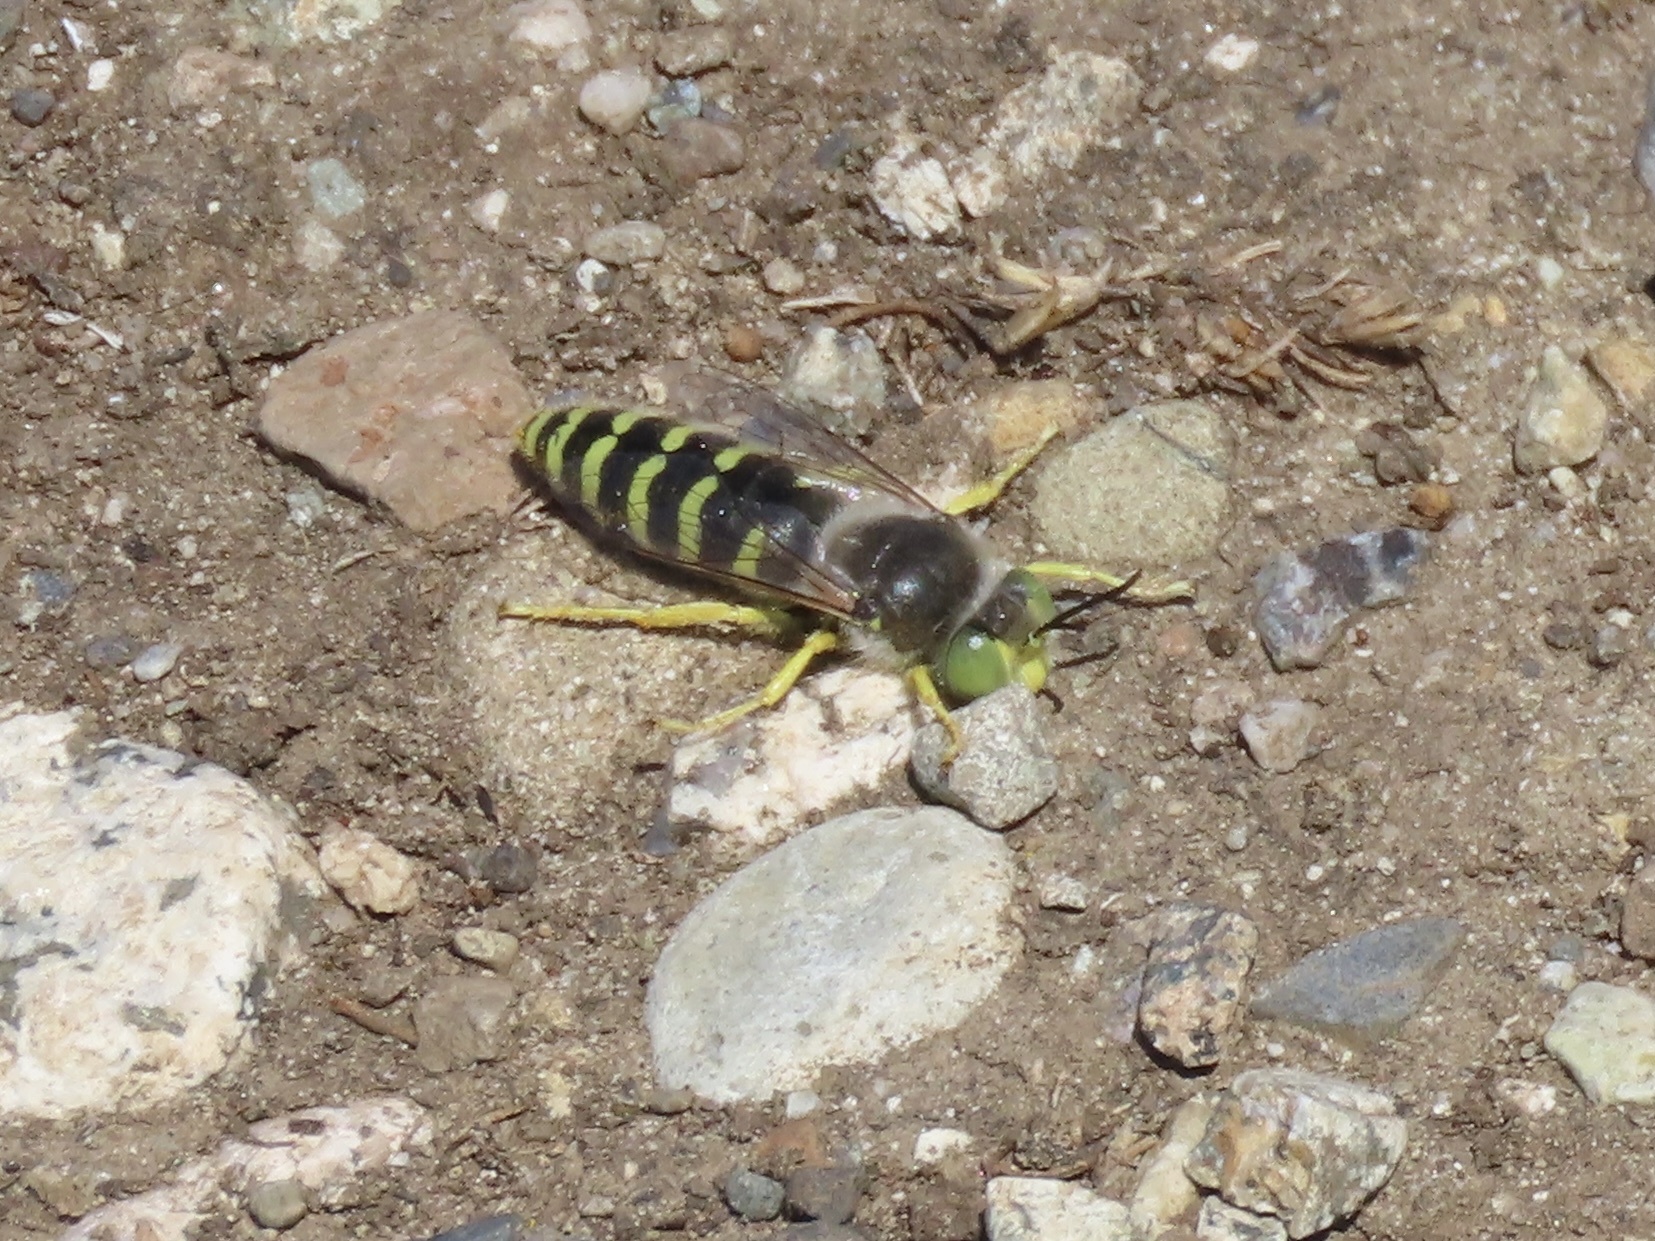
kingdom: Animalia
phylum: Arthropoda
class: Insecta
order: Hymenoptera
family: Crabronidae
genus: Bembix
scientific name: Bembix americana
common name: American sand wasp
